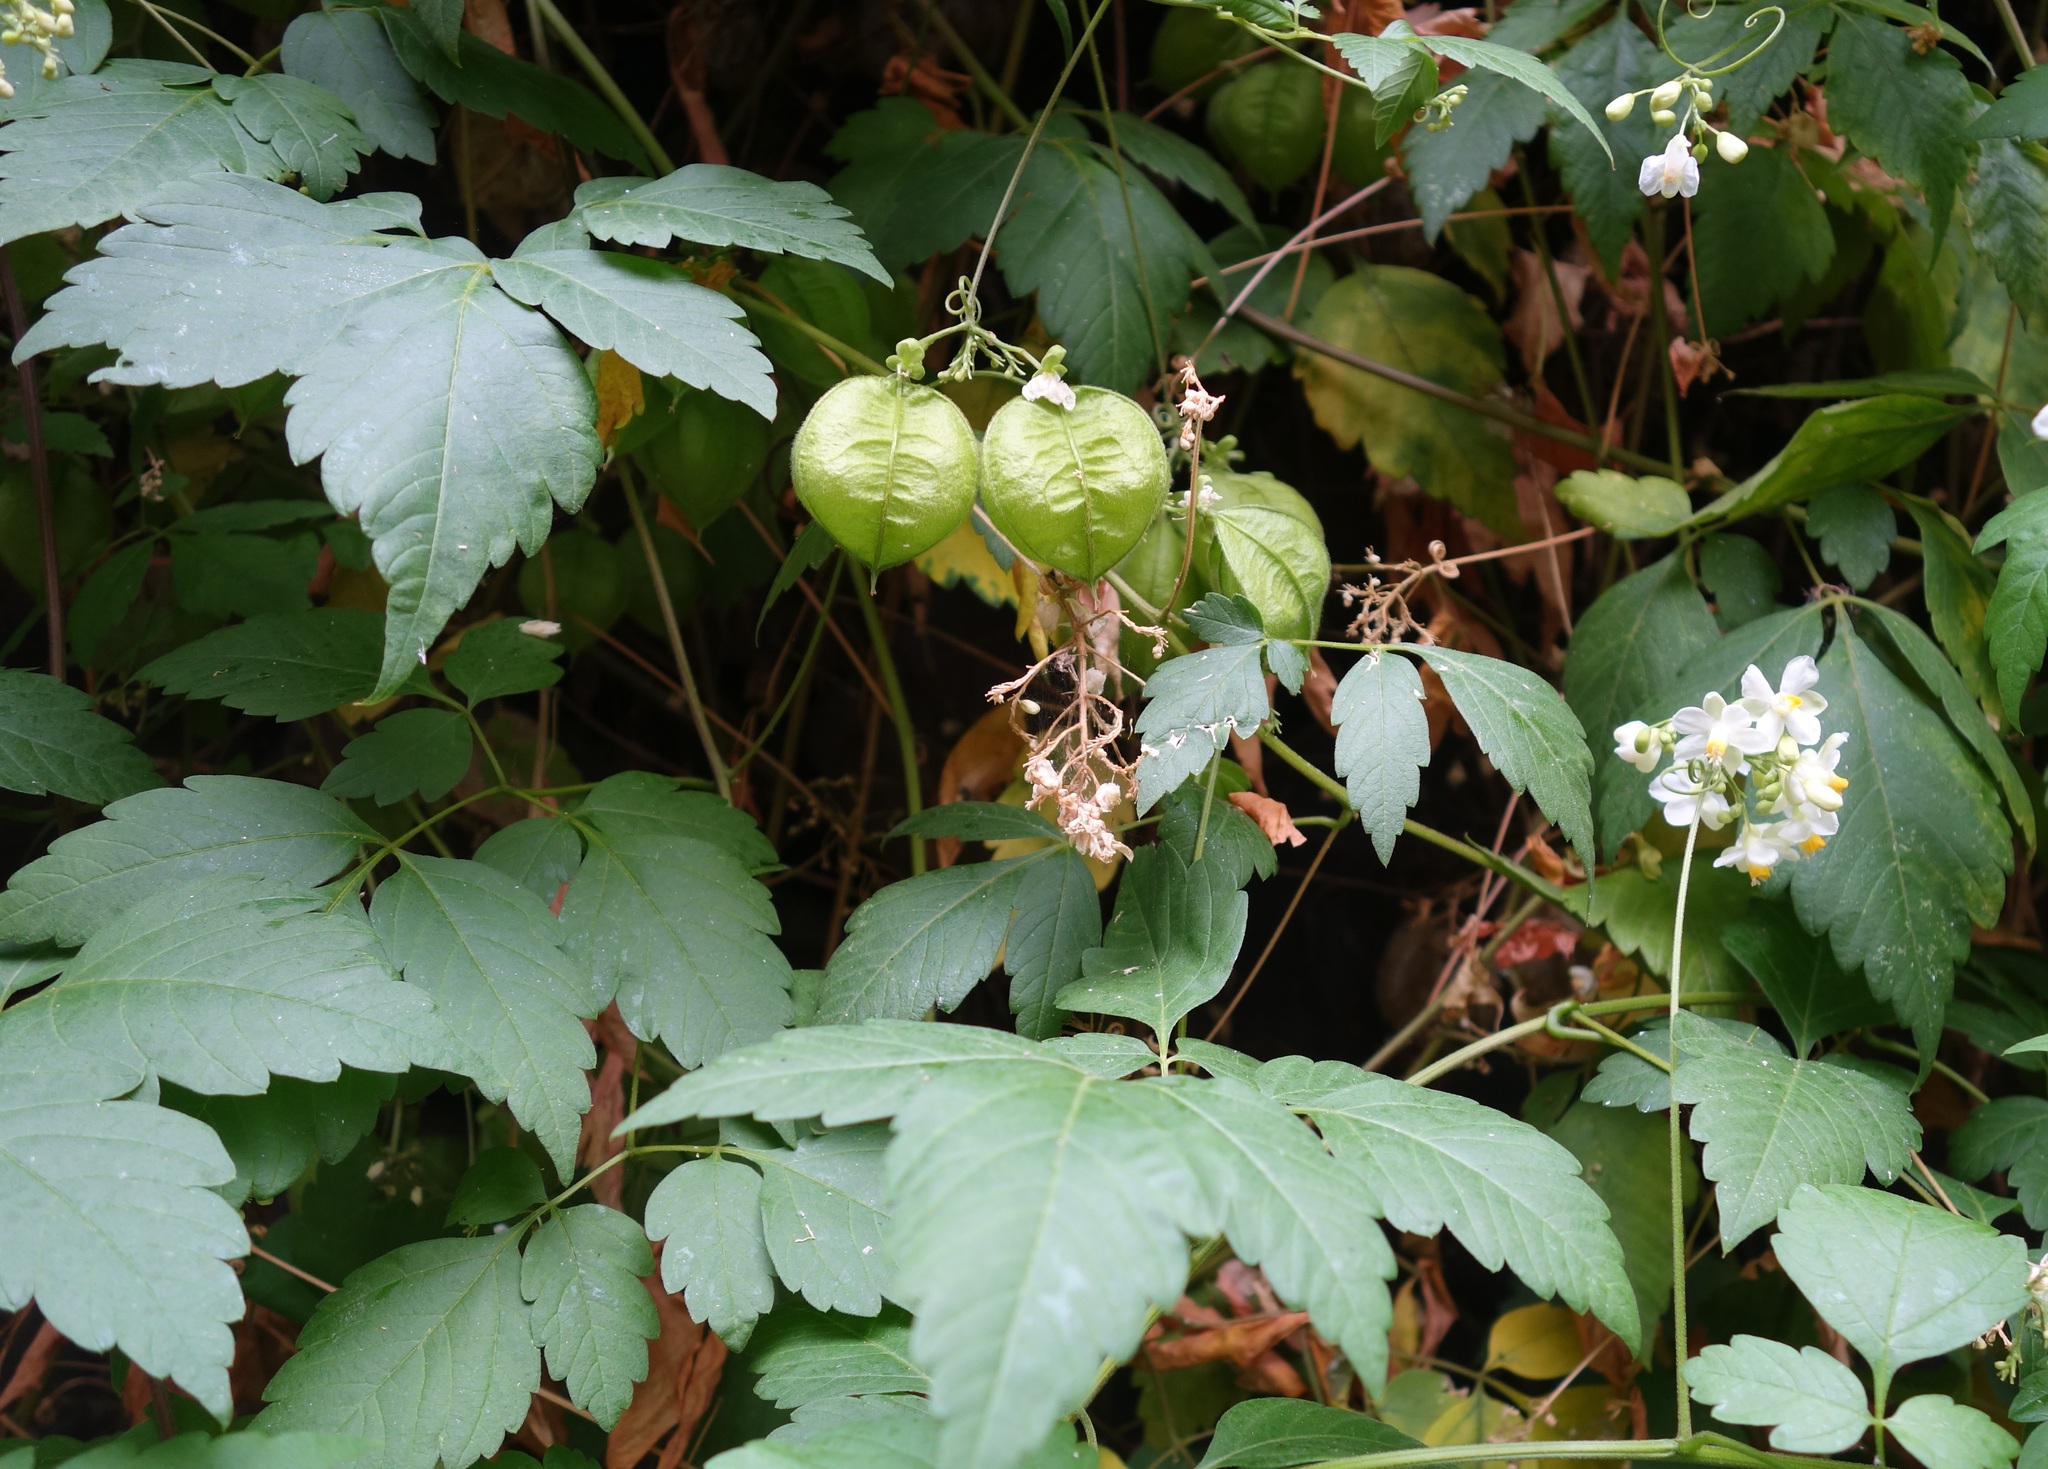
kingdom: Plantae
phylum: Tracheophyta
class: Magnoliopsida
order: Sapindales
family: Sapindaceae
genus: Cardiospermum
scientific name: Cardiospermum grandiflorum
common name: Balloon vine
